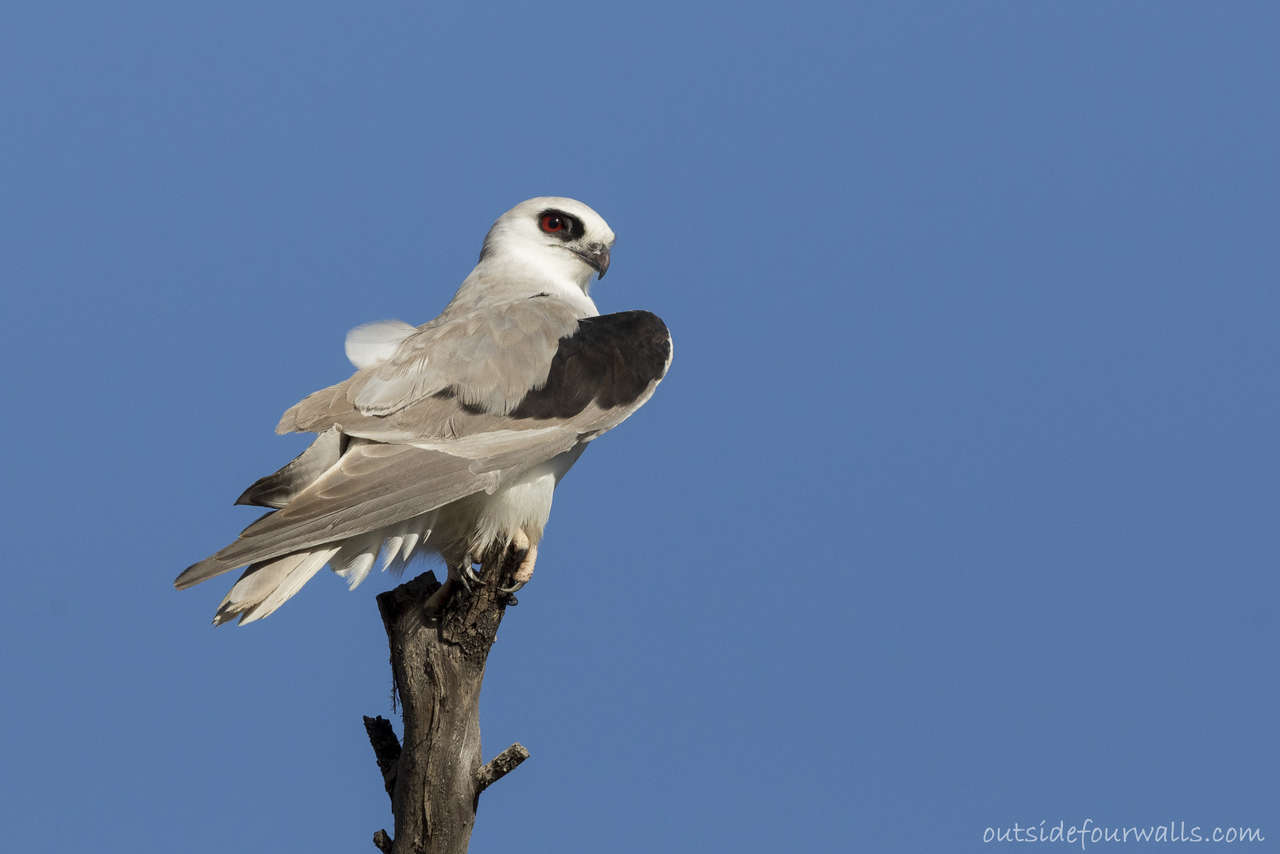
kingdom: Animalia
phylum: Chordata
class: Aves
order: Accipitriformes
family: Accipitridae
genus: Elanus
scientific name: Elanus scriptus
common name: Letter-winged kite
